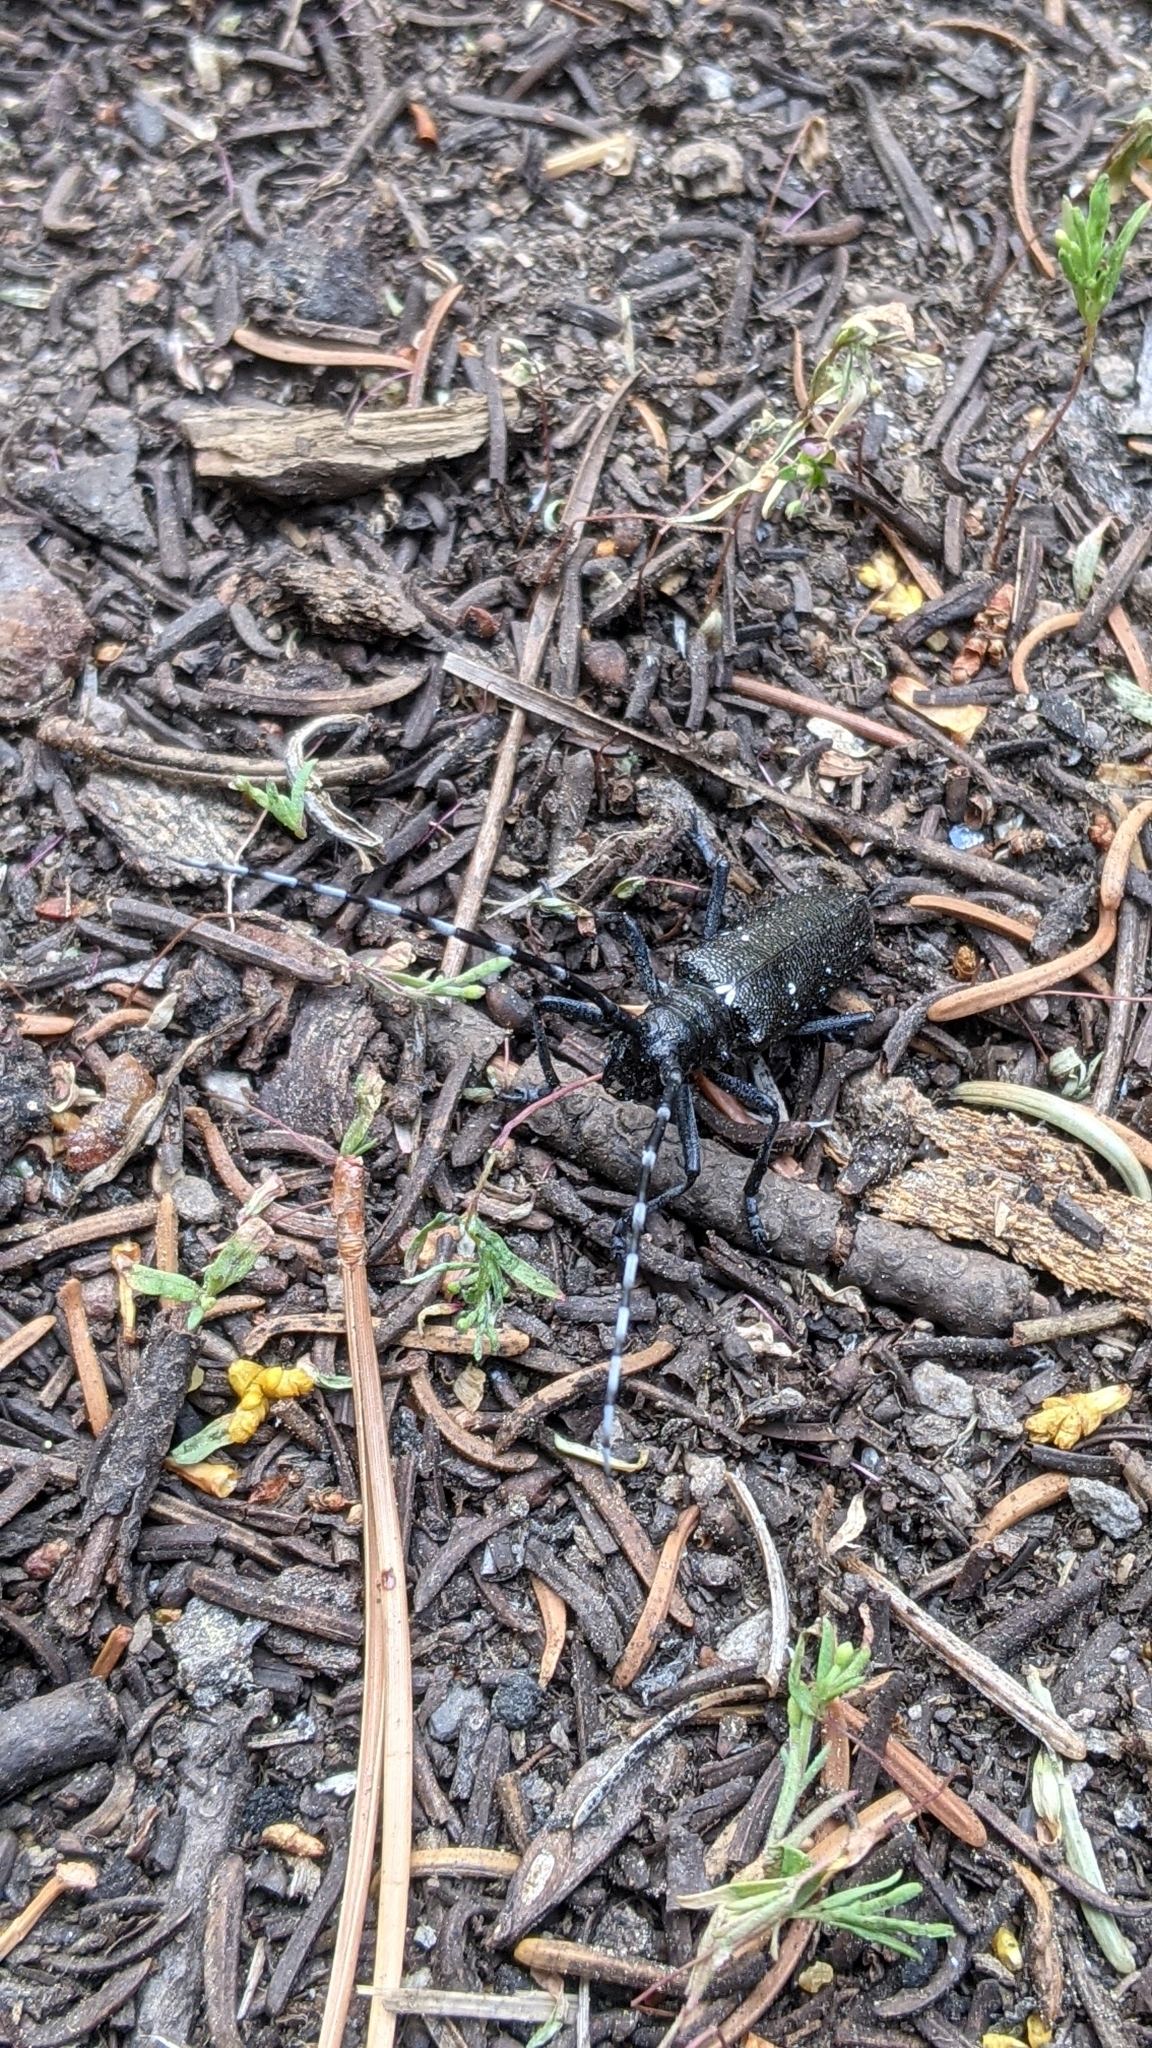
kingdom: Animalia
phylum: Arthropoda
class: Insecta
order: Coleoptera
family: Cerambycidae
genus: Monochamus
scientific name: Monochamus scutellatus
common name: White-spotted sawyer beetle
